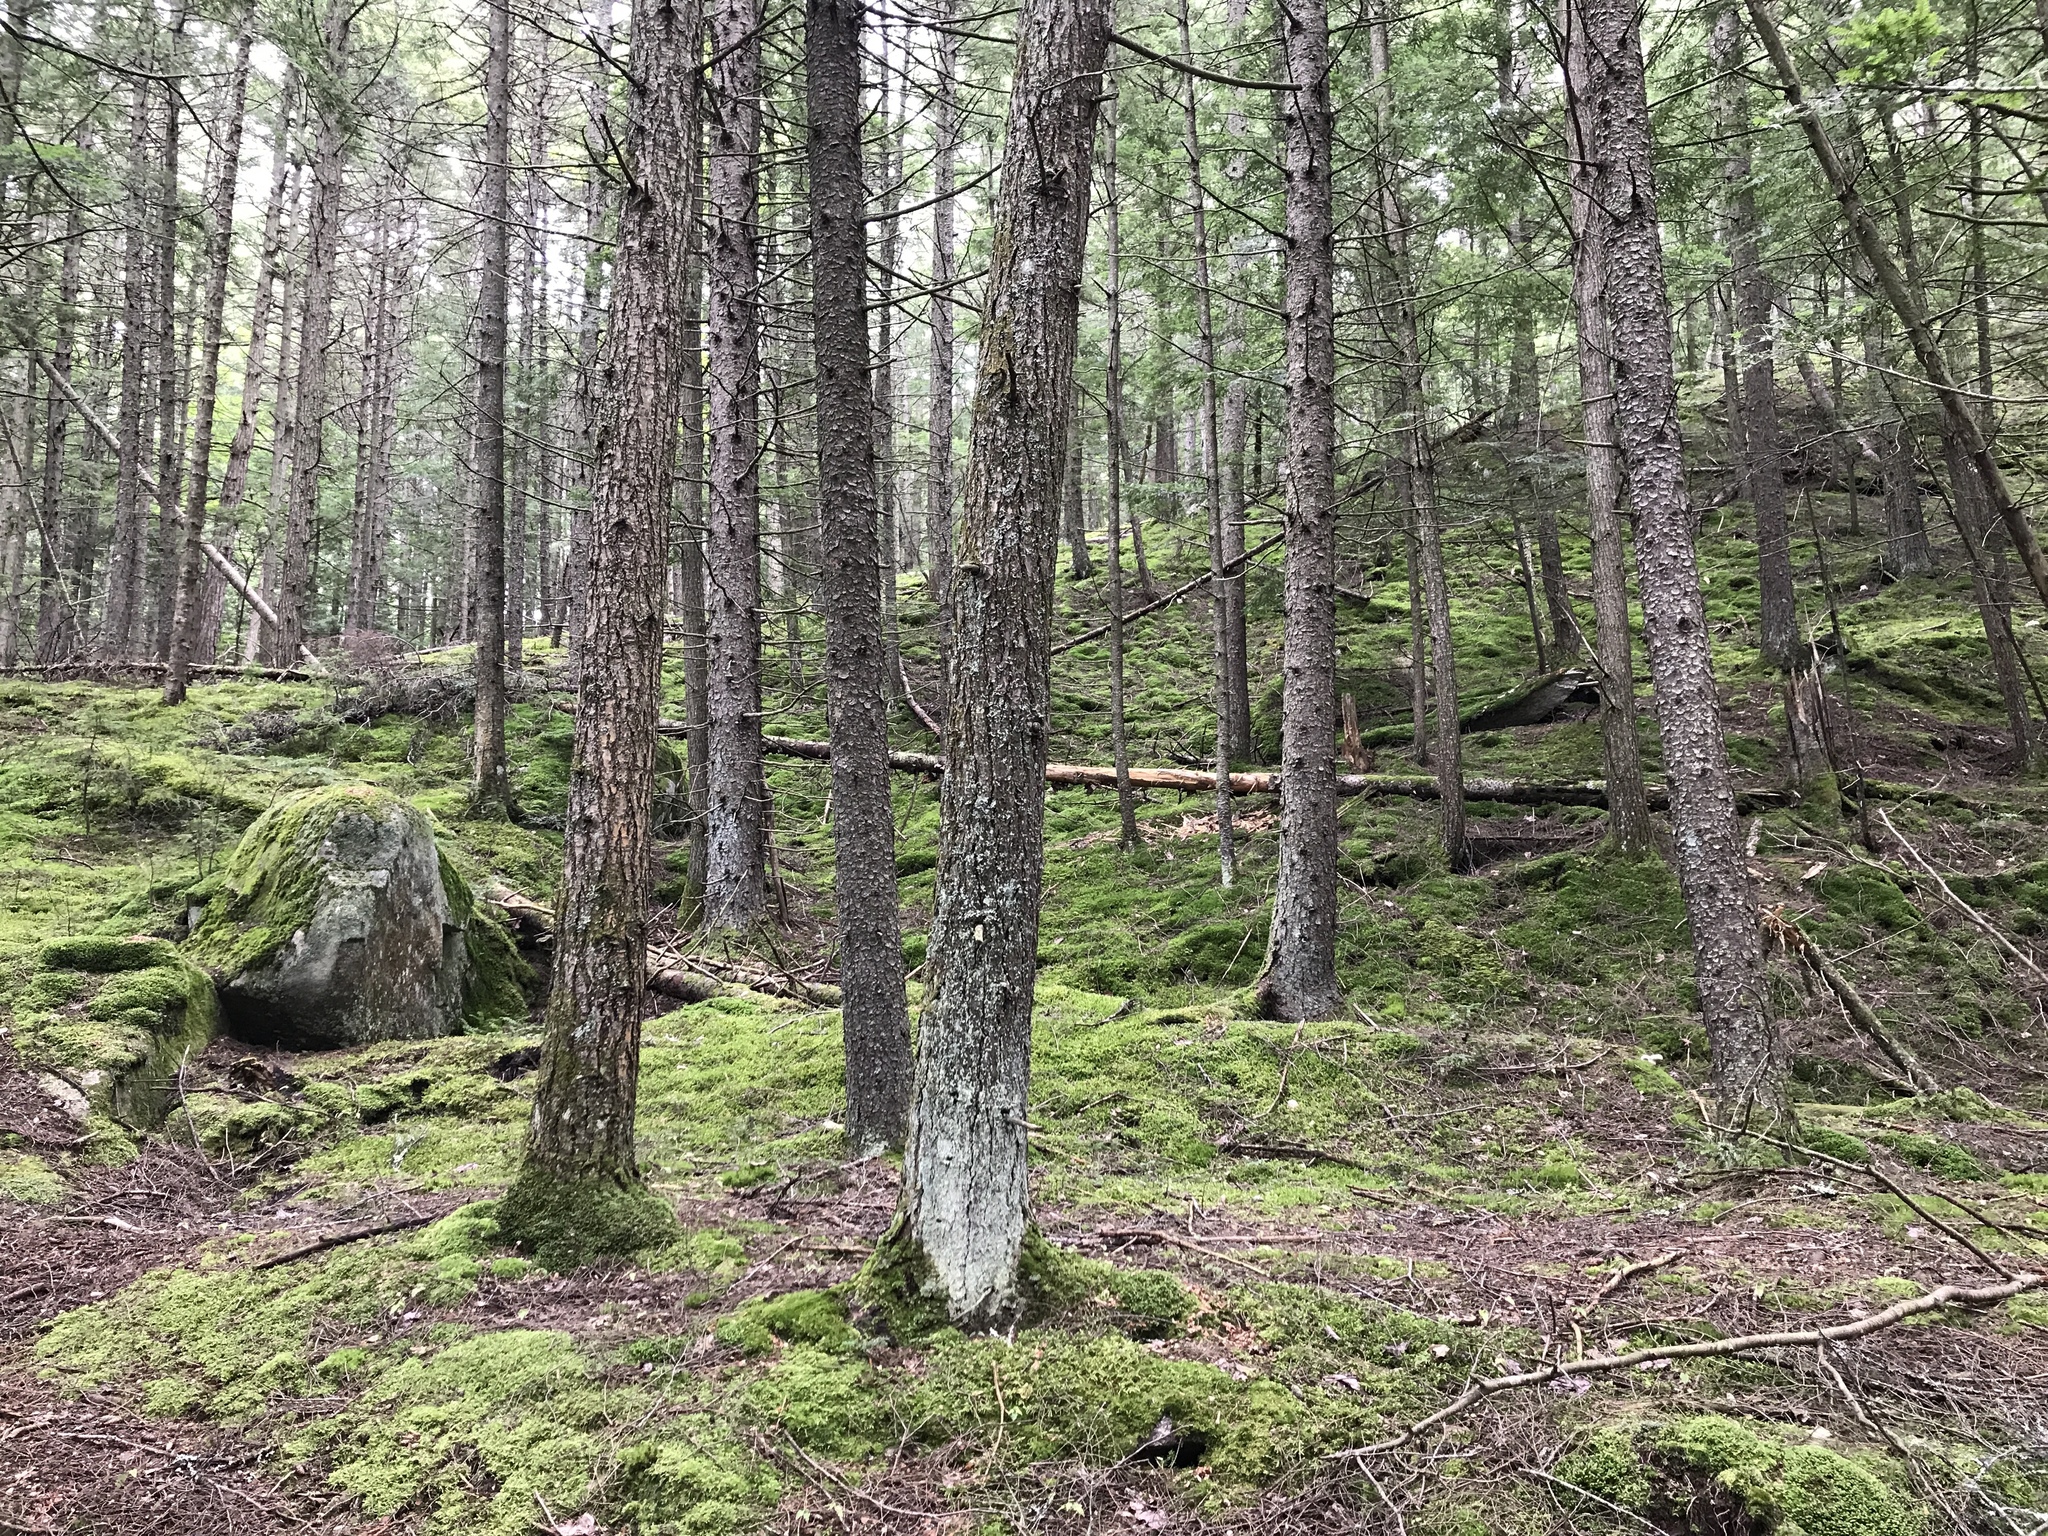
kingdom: Plantae
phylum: Tracheophyta
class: Pinopsida
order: Pinales
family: Pinaceae
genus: Picea
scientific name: Picea rubens
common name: Red spruce
